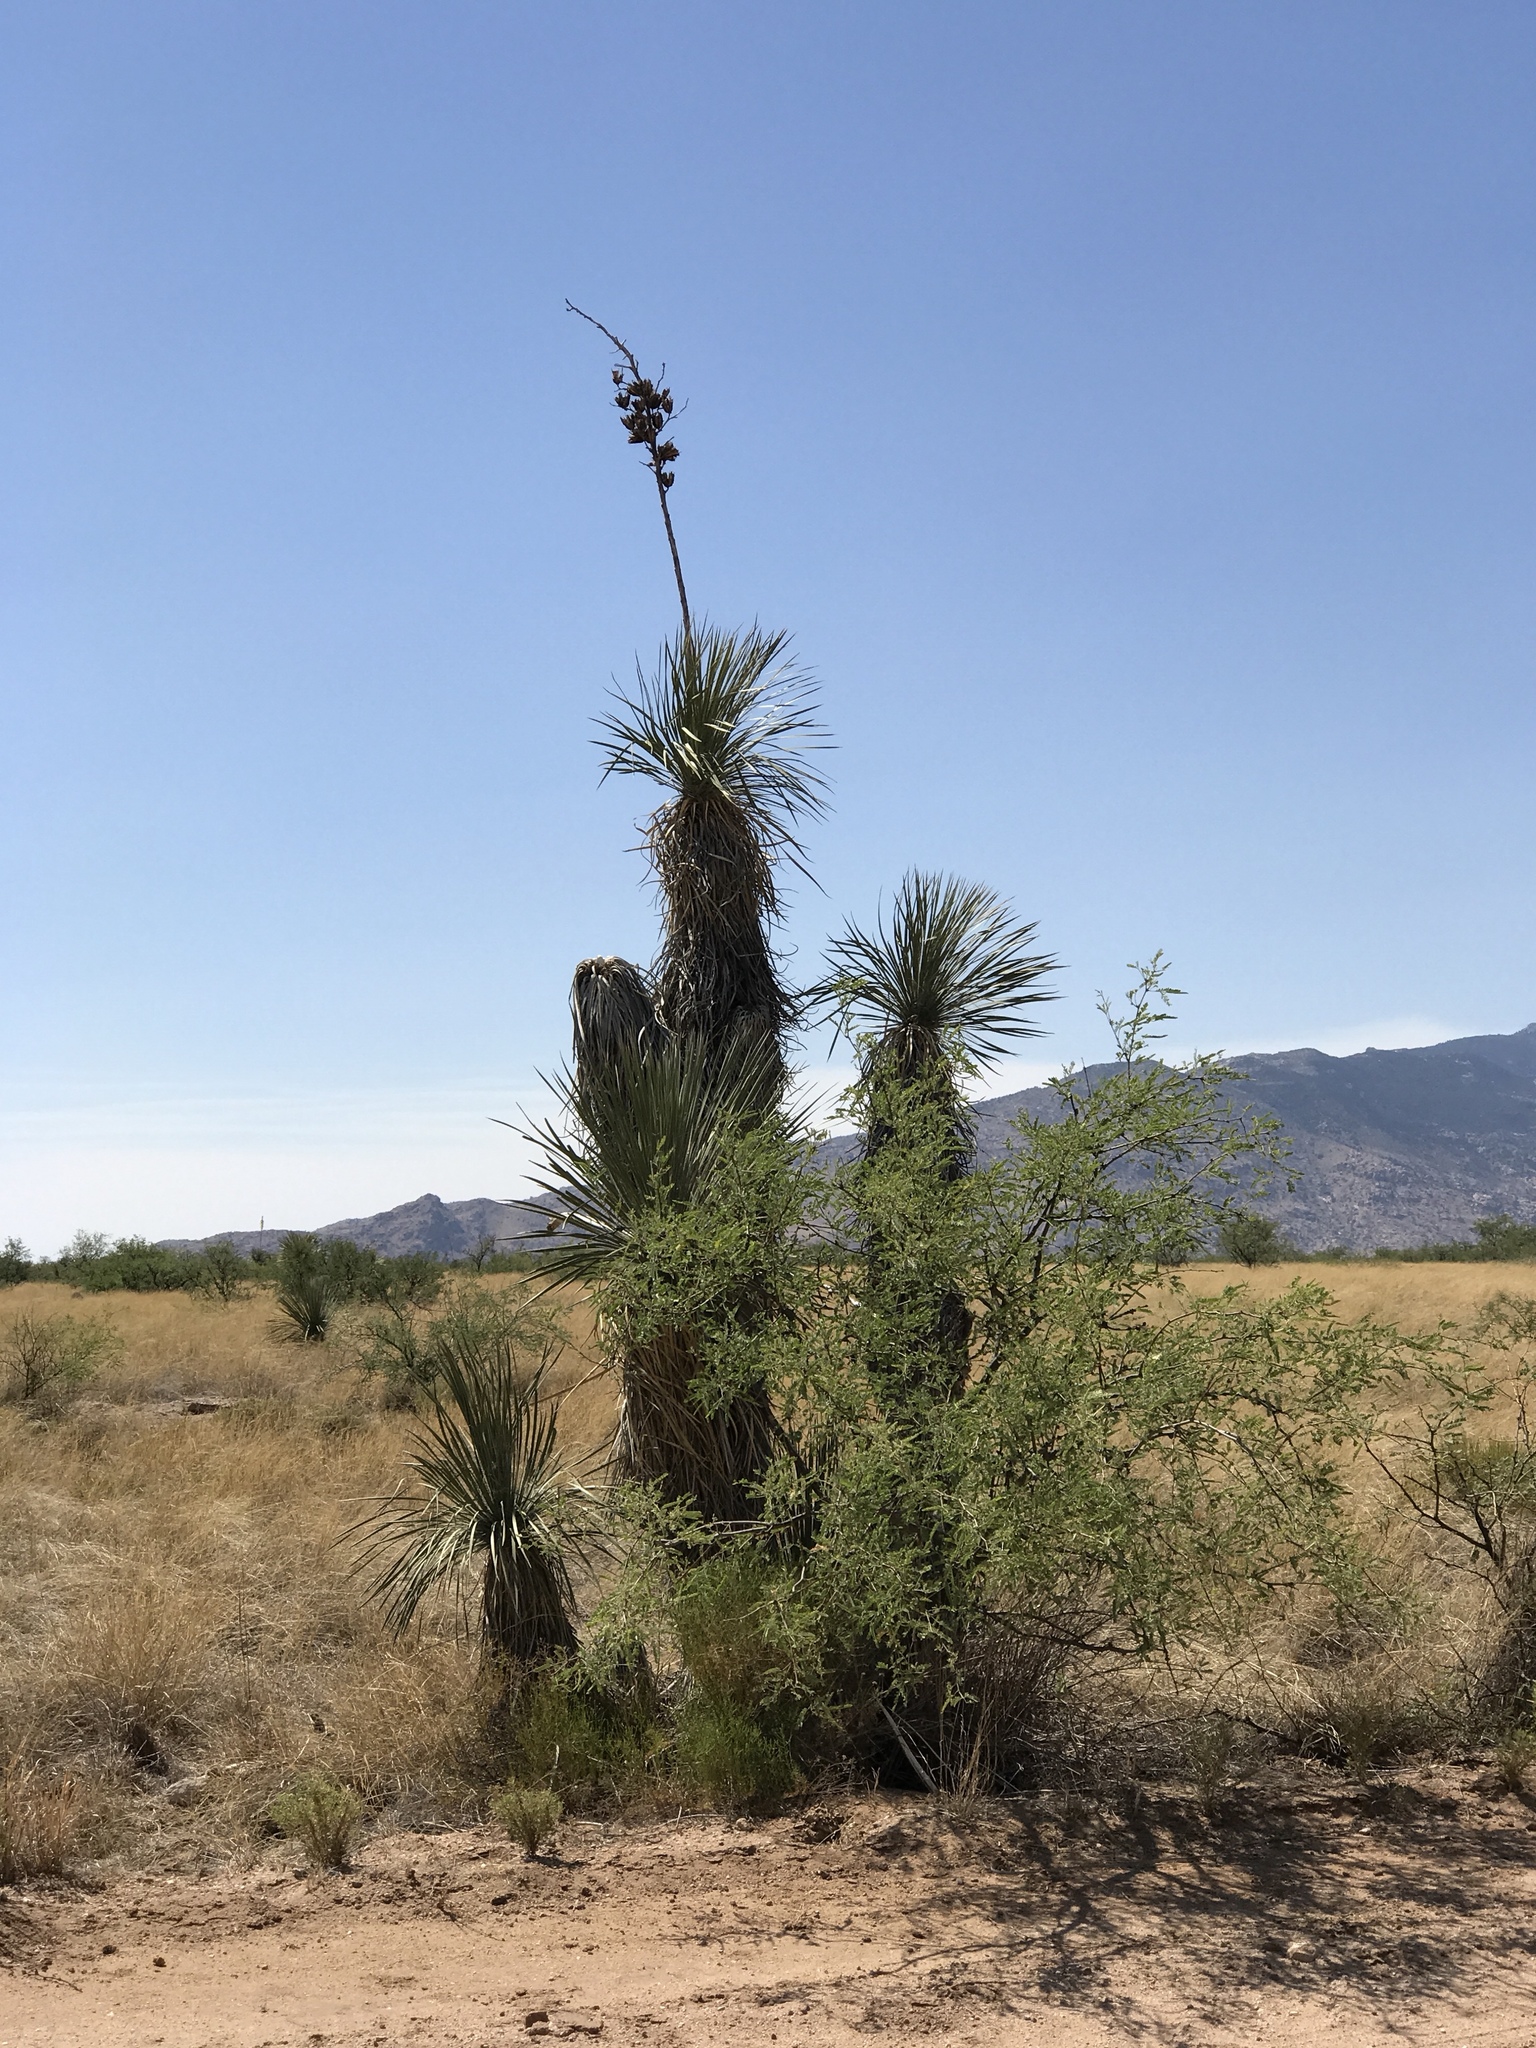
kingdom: Plantae
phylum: Tracheophyta
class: Liliopsida
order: Asparagales
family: Asparagaceae
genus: Yucca
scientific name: Yucca elata
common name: Palmella
